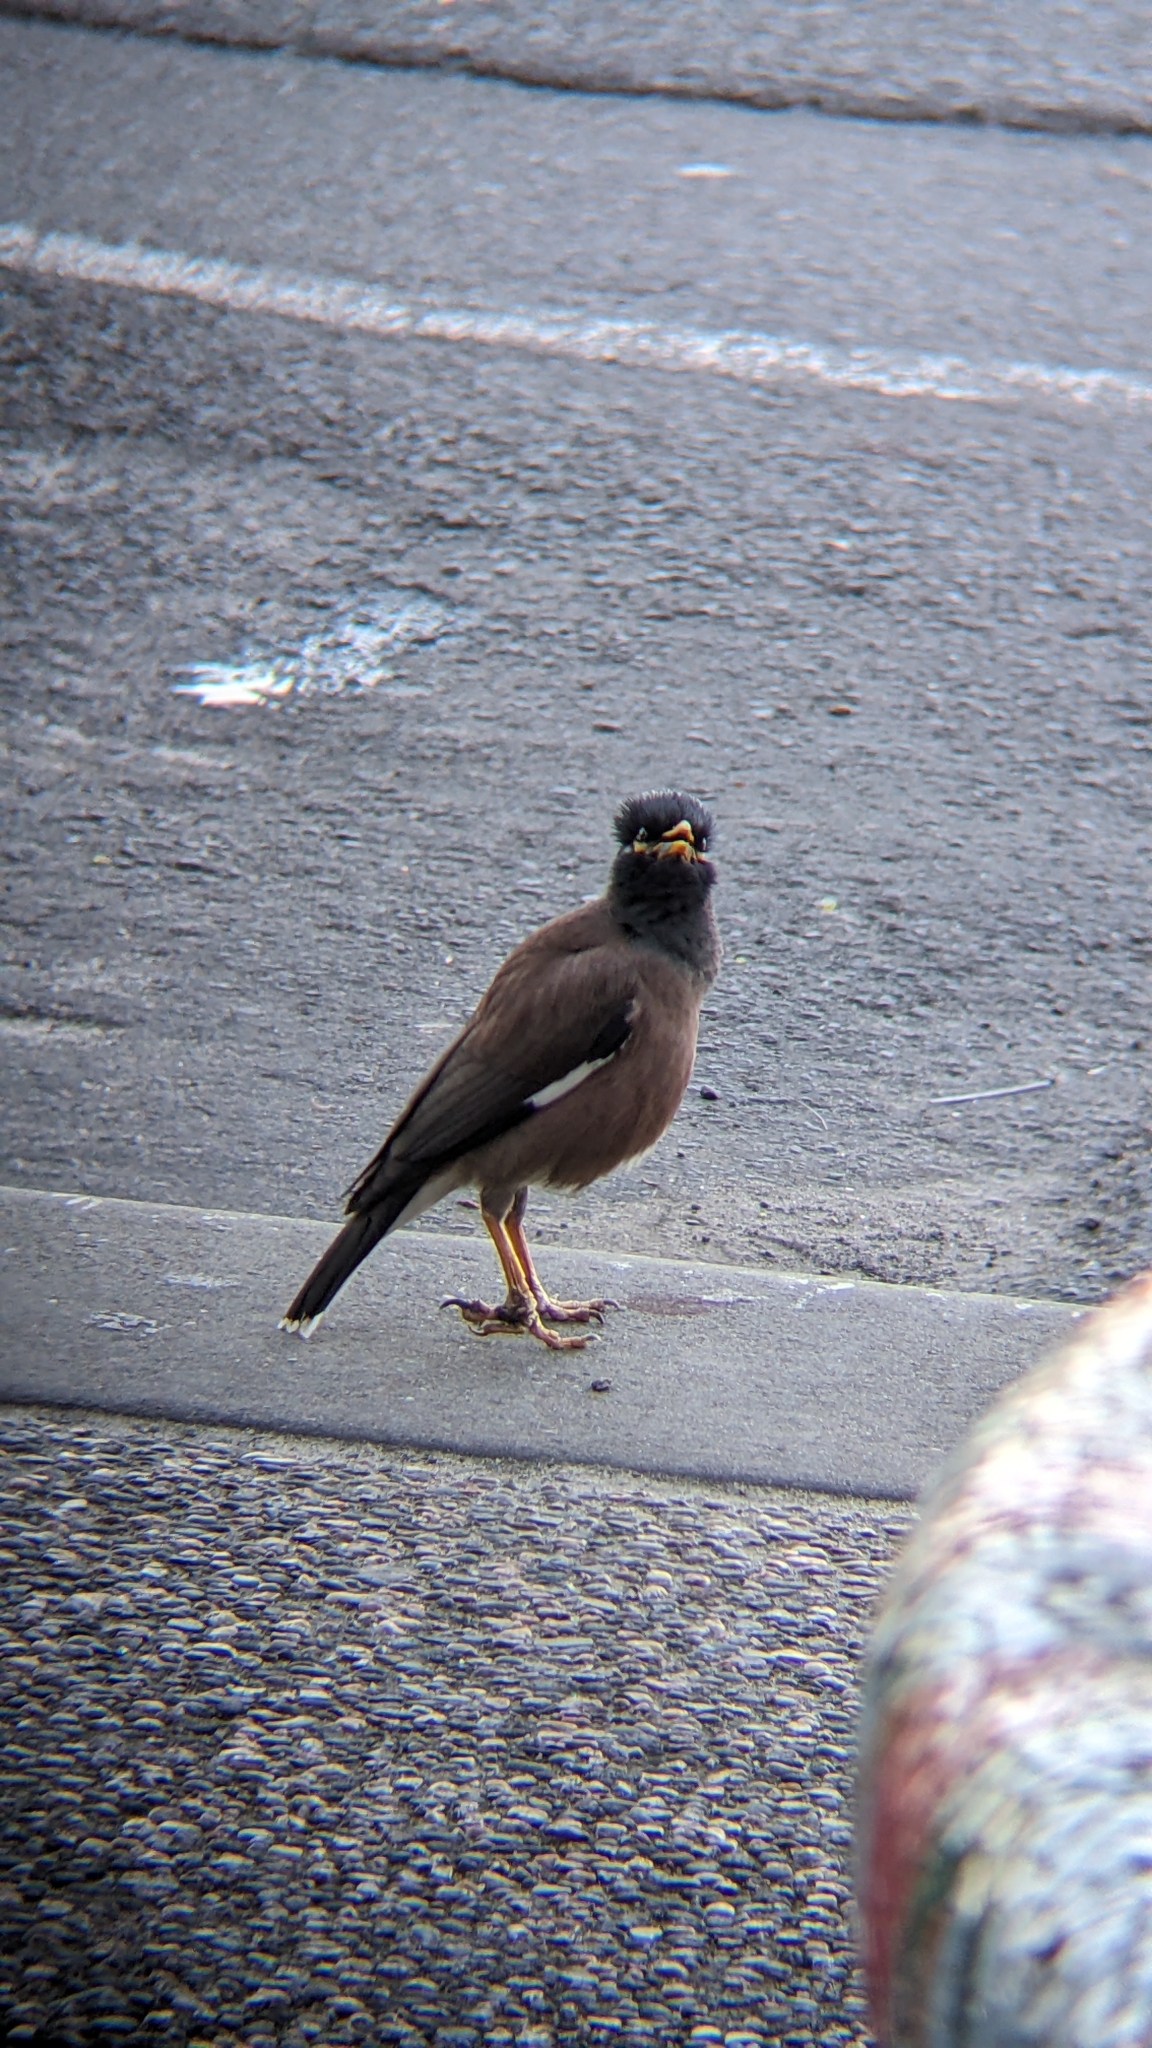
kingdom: Animalia
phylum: Chordata
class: Aves
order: Passeriformes
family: Sturnidae
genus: Acridotheres
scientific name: Acridotheres tristis
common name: Common myna
